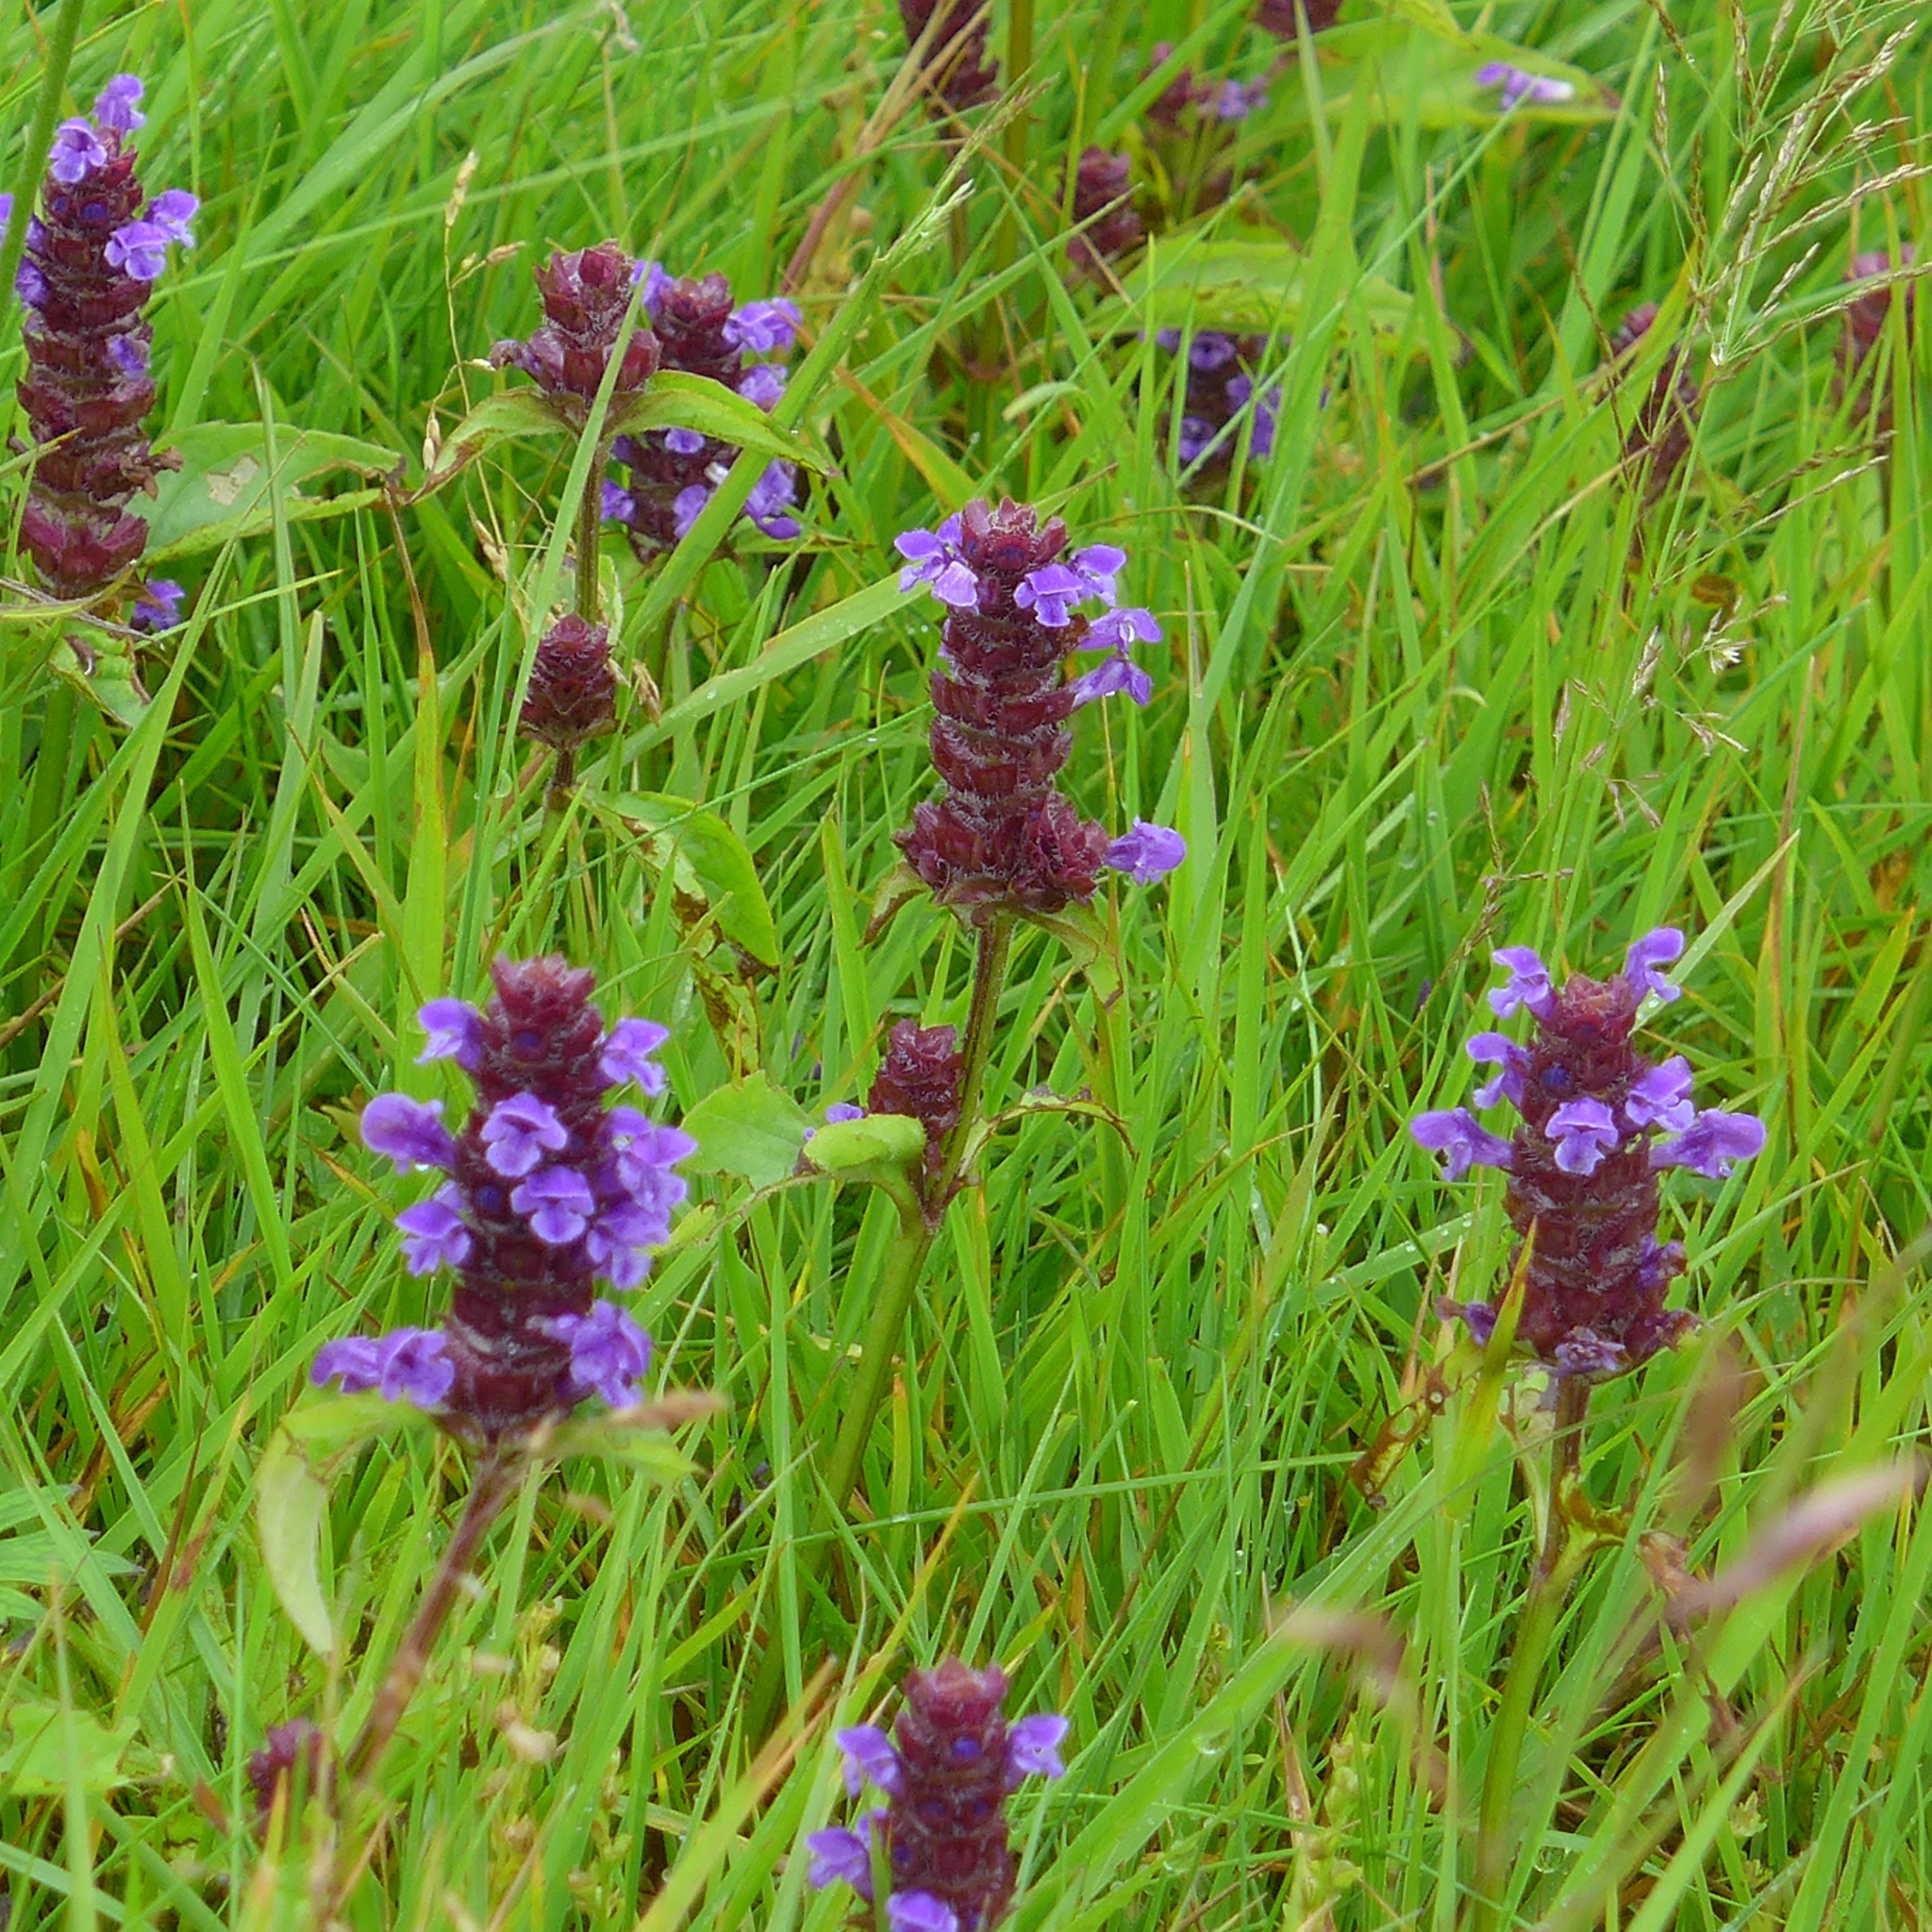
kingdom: Plantae
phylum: Tracheophyta
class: Magnoliopsida
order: Lamiales
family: Lamiaceae
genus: Prunella
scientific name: Prunella vulgaris
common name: Heal-all
